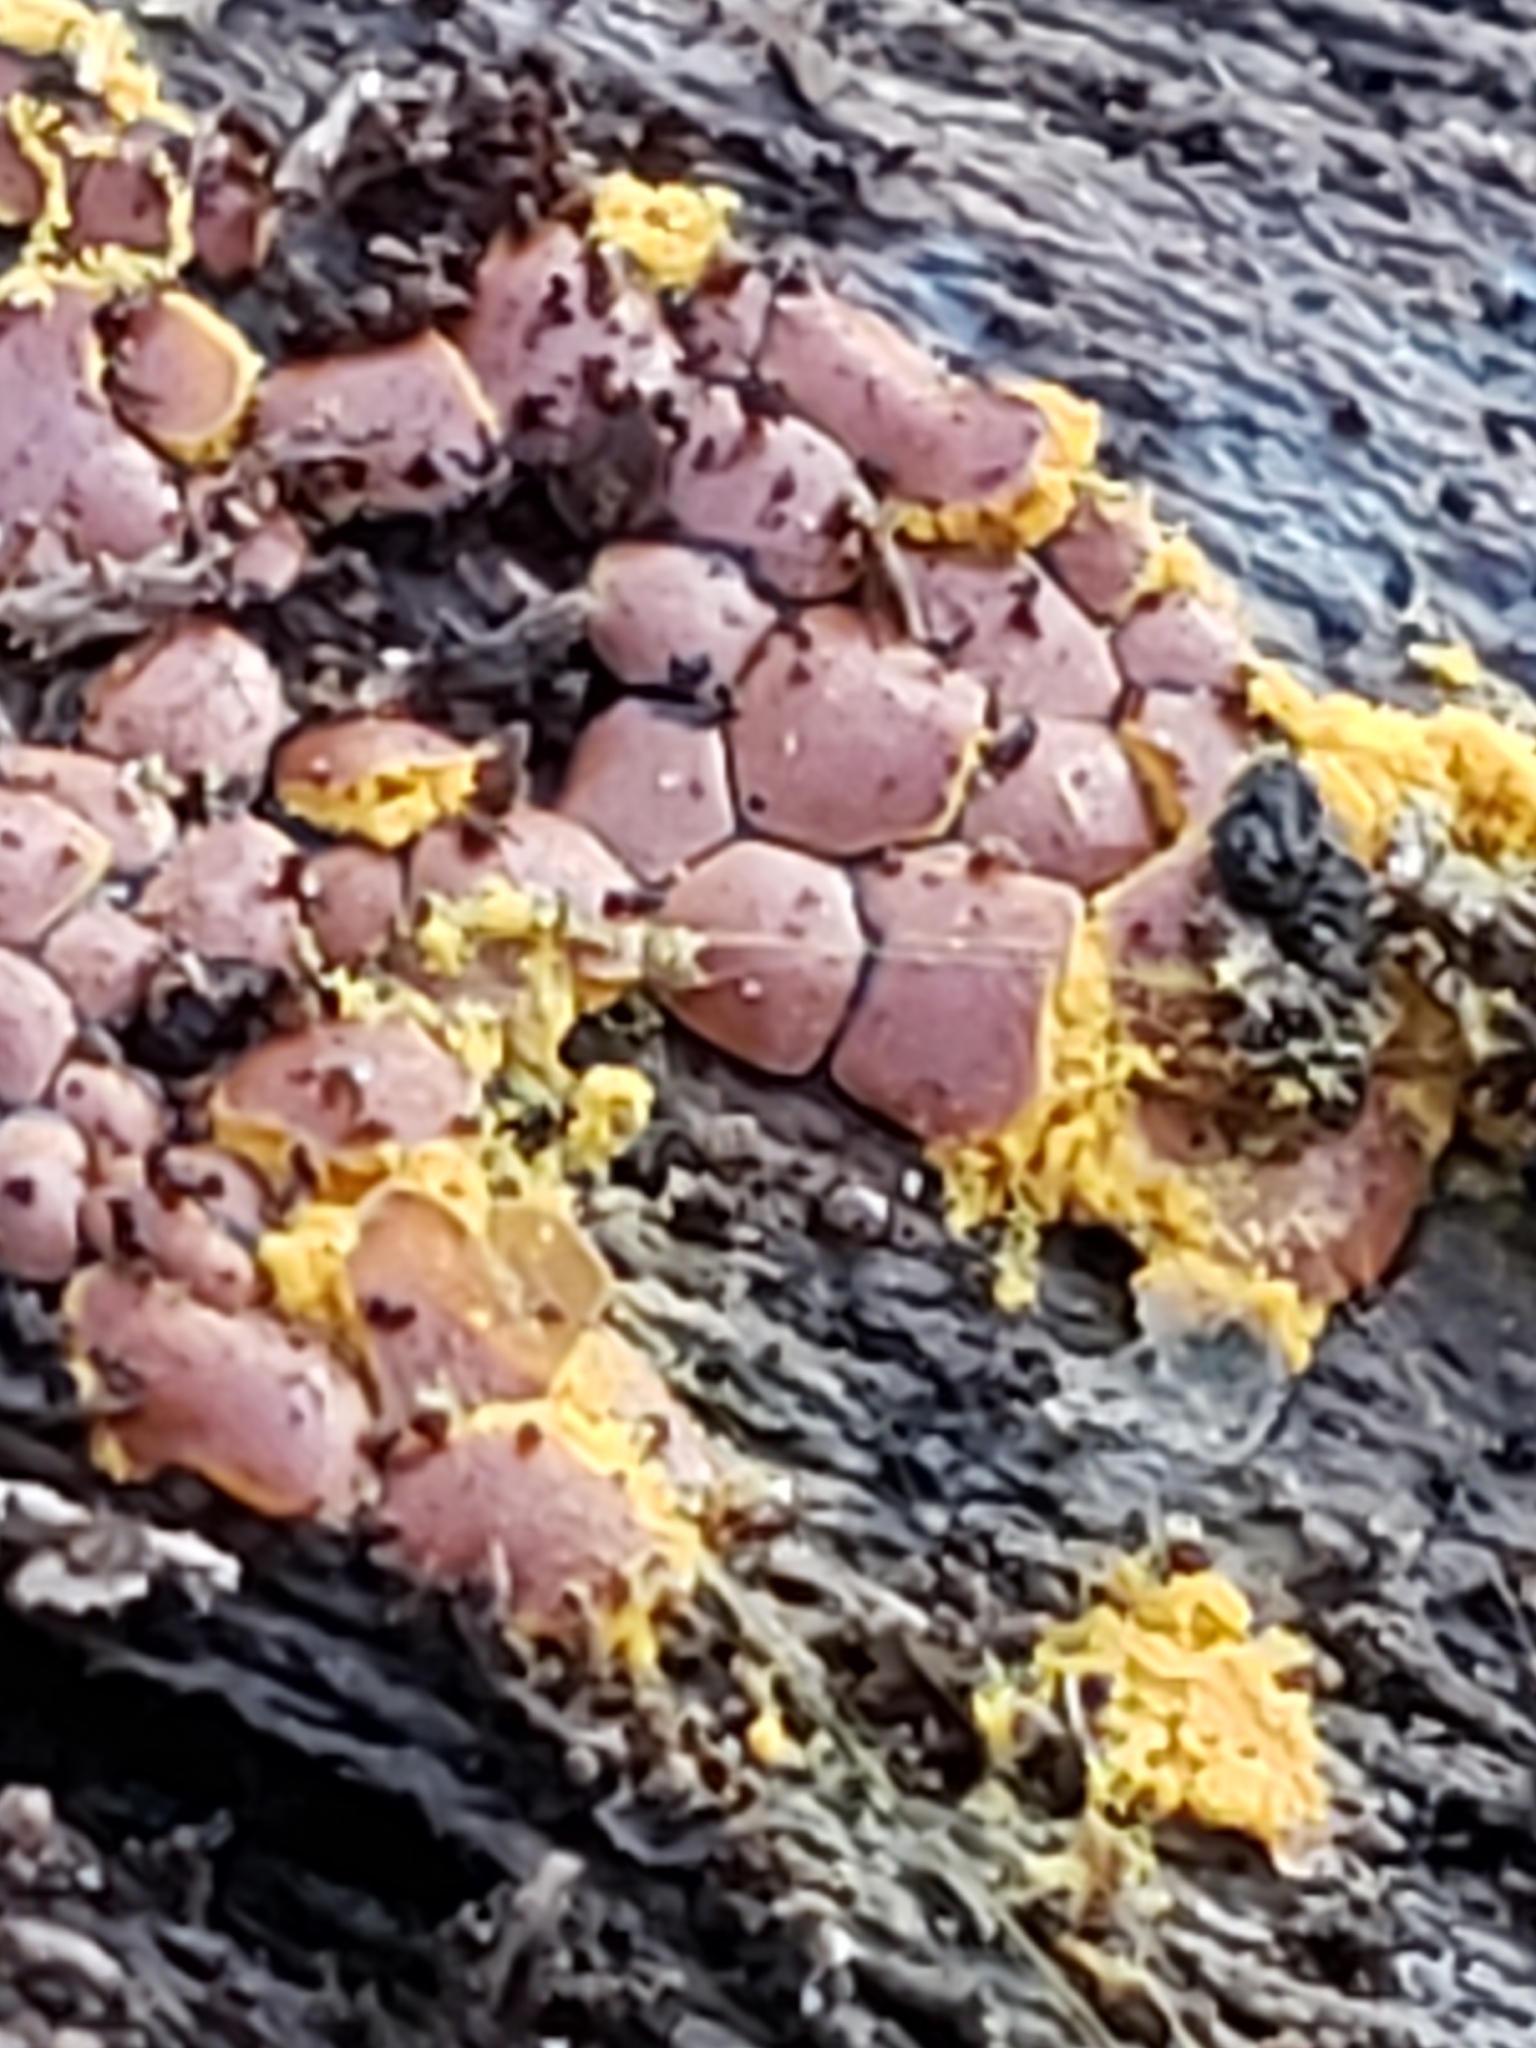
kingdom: Protozoa
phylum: Mycetozoa
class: Myxomycetes
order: Trichiales
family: Trichiaceae
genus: Perichaena
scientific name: Perichaena depressa
